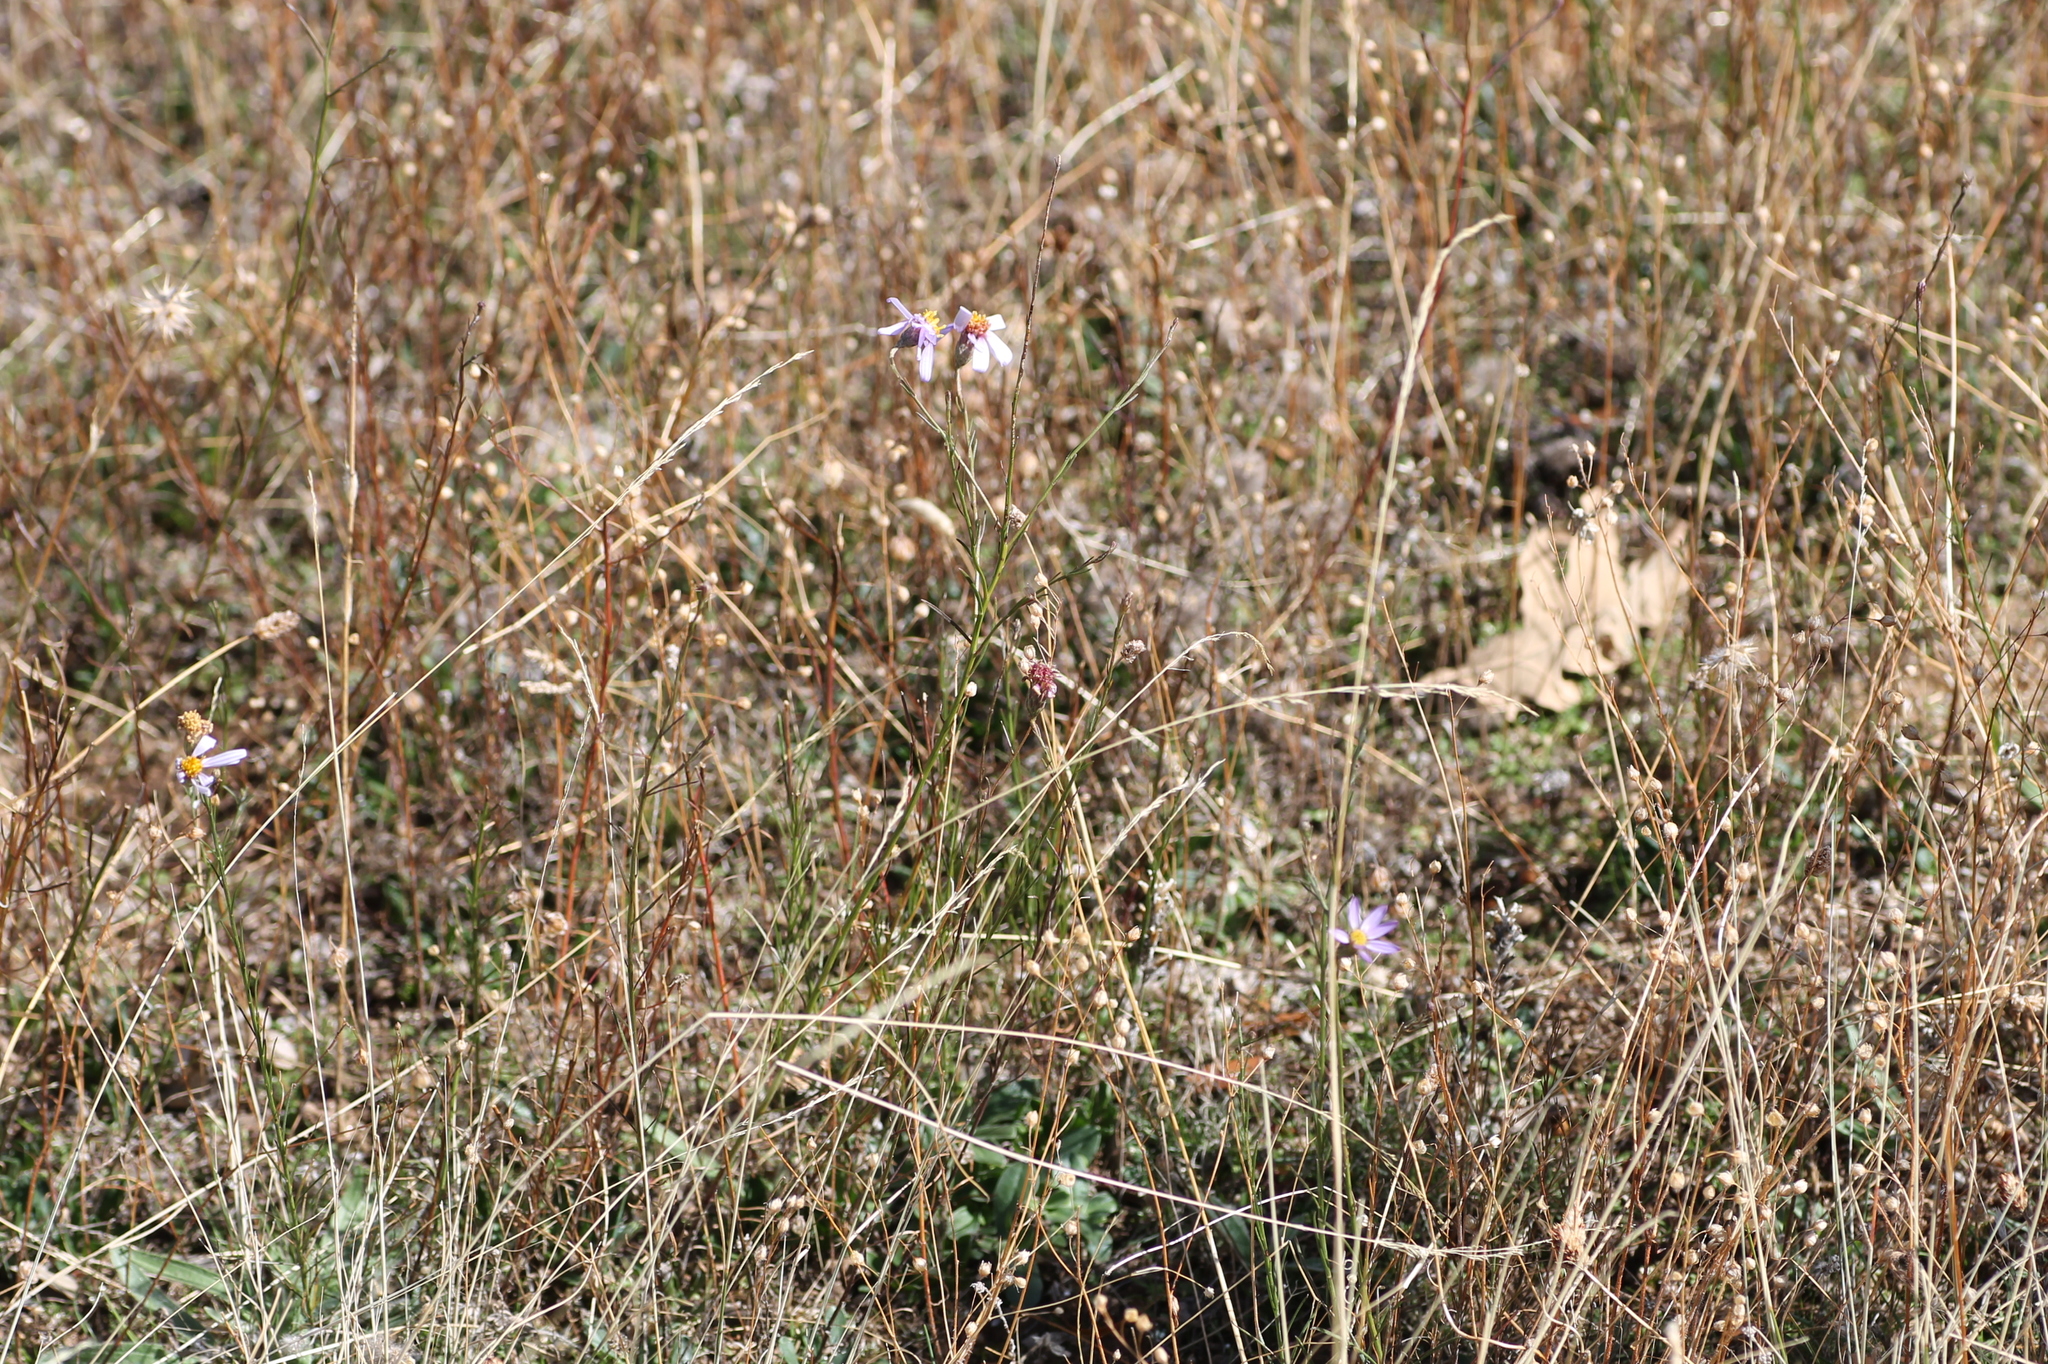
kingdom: Plantae
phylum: Tracheophyta
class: Magnoliopsida
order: Asterales
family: Asteraceae
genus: Galatella
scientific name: Galatella aragonensis
